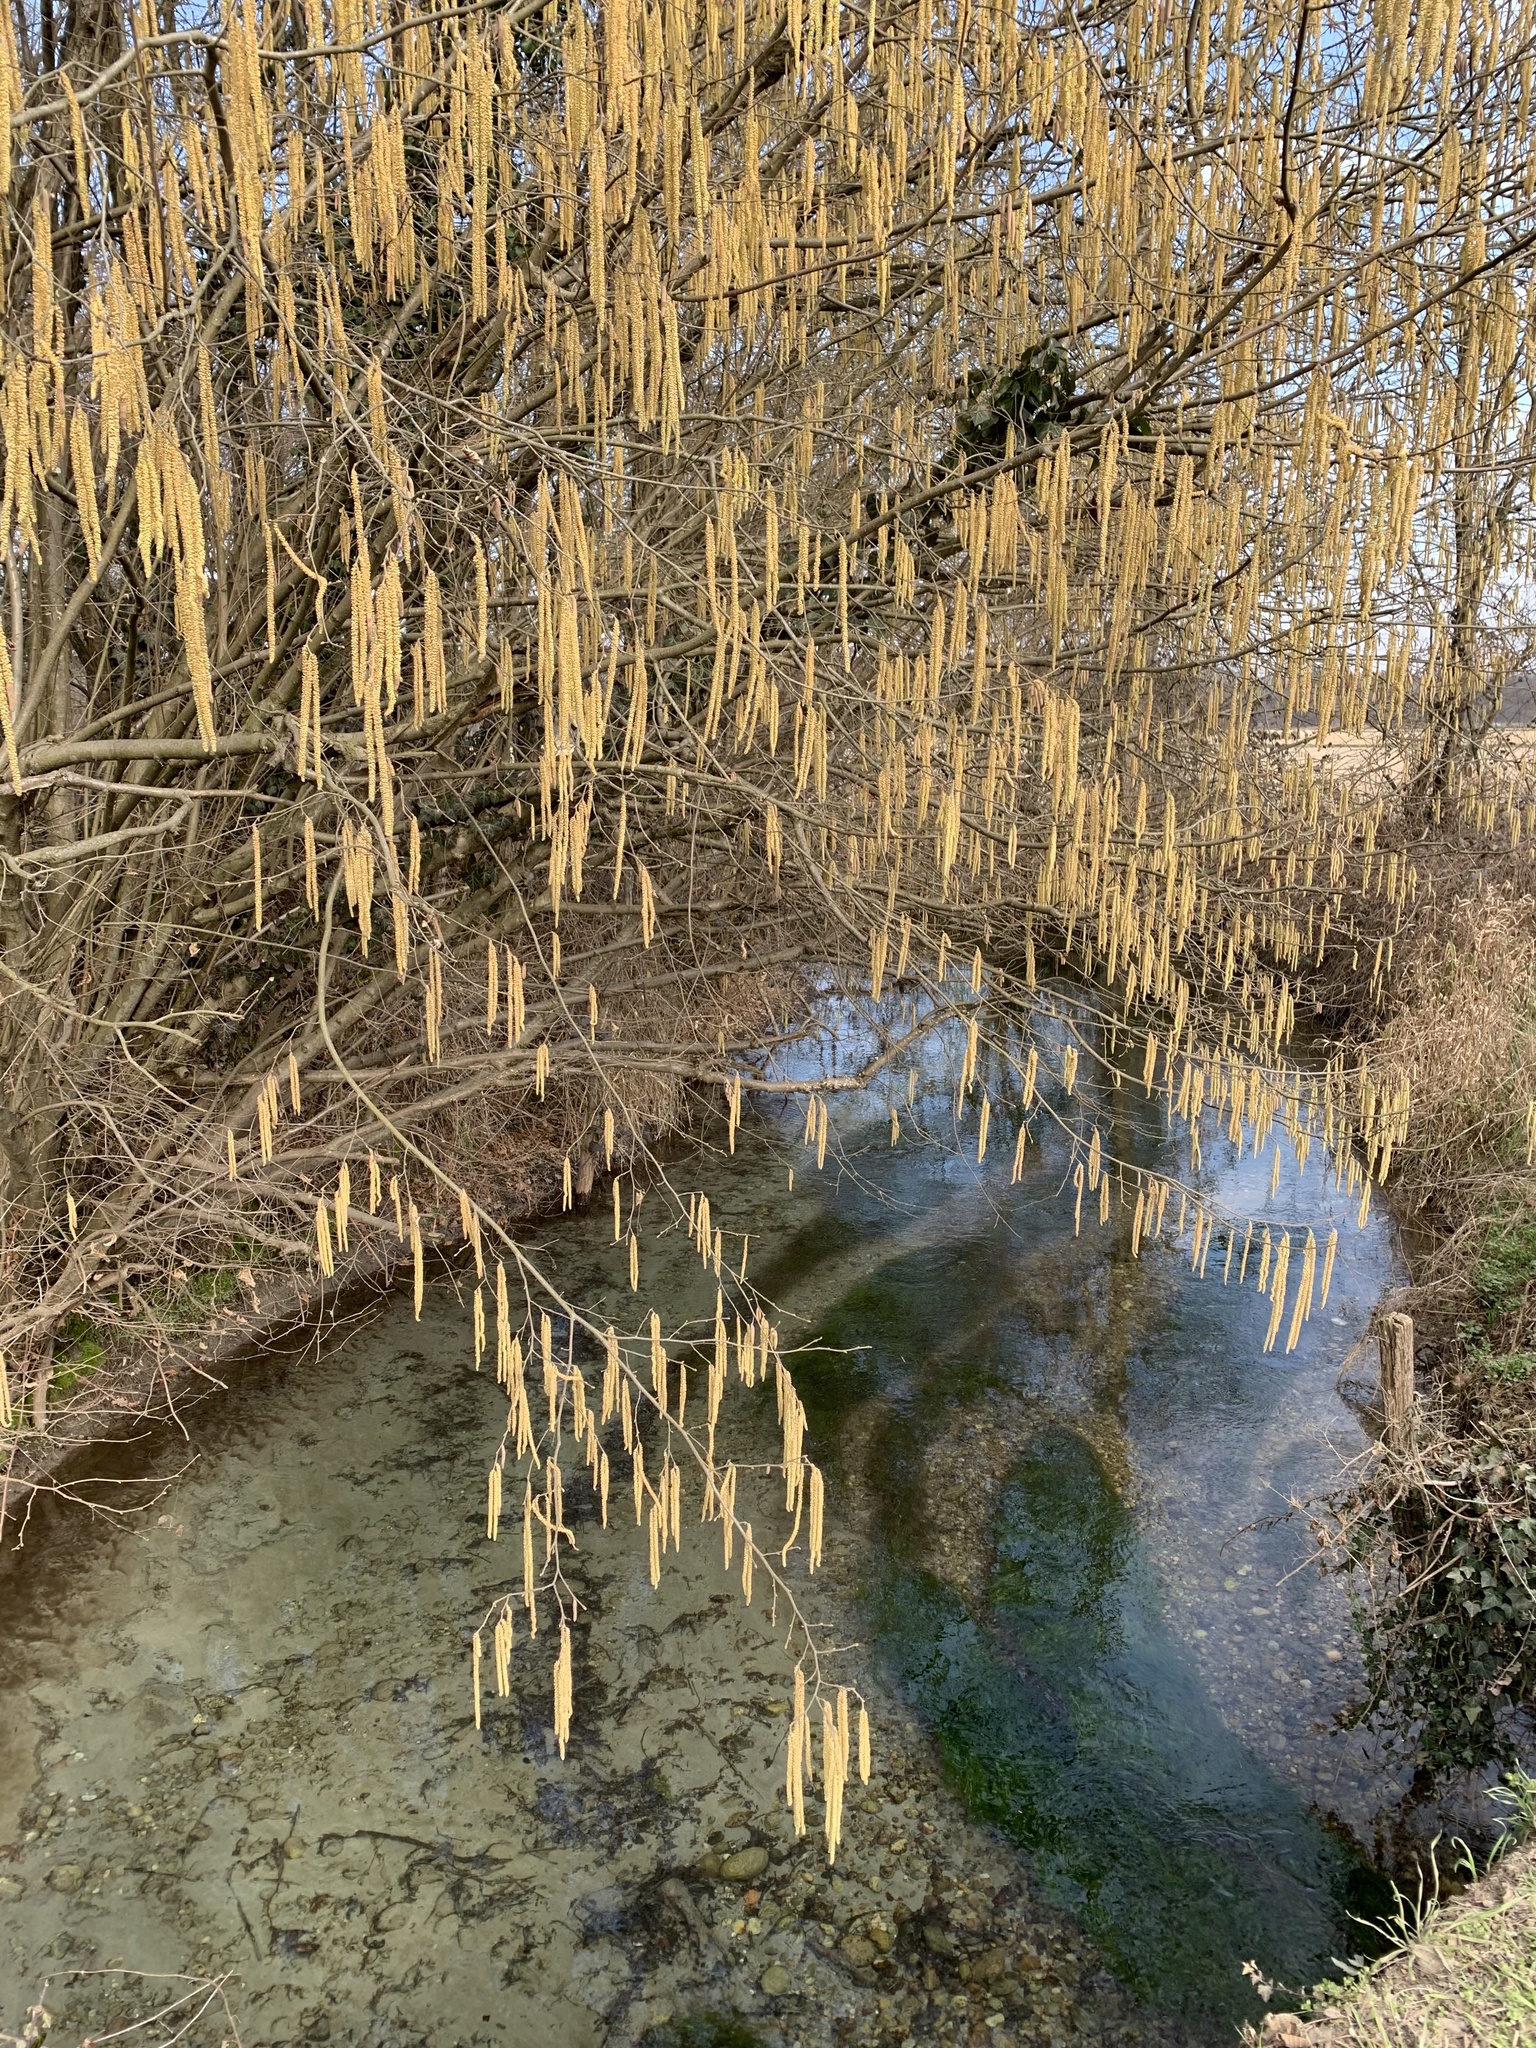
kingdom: Plantae
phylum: Tracheophyta
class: Magnoliopsida
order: Fagales
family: Betulaceae
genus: Corylus
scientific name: Corylus avellana
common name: European hazel
